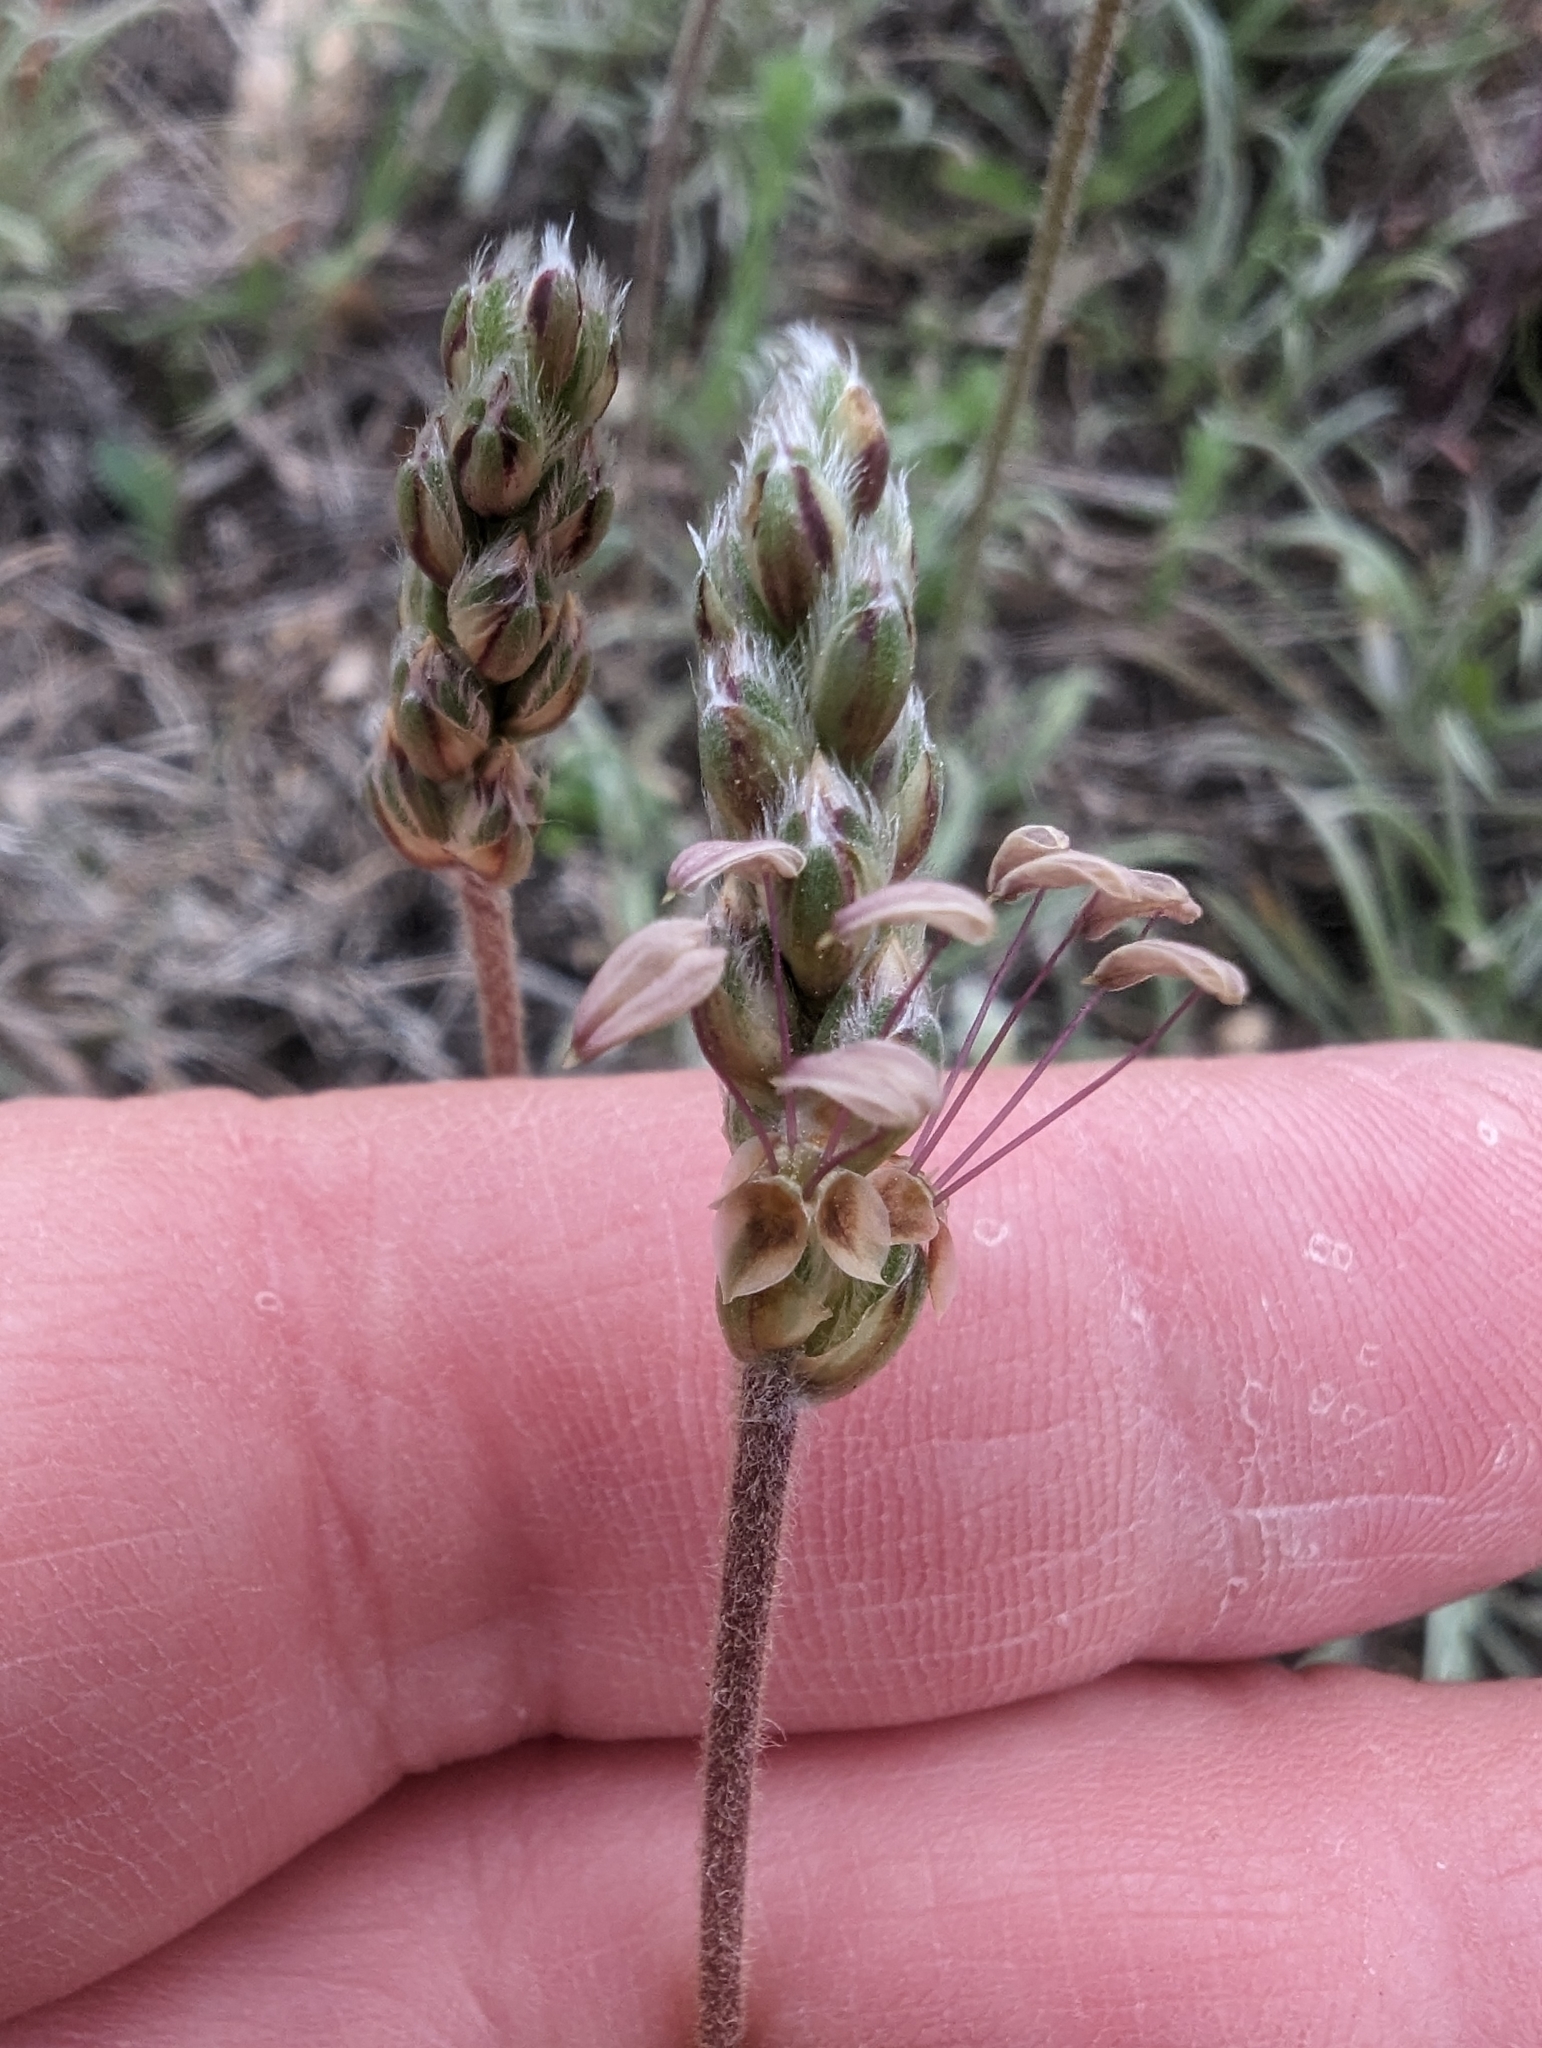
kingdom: Plantae
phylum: Tracheophyta
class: Magnoliopsida
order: Lamiales
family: Plantaginaceae
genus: Plantago
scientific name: Plantago albicans
